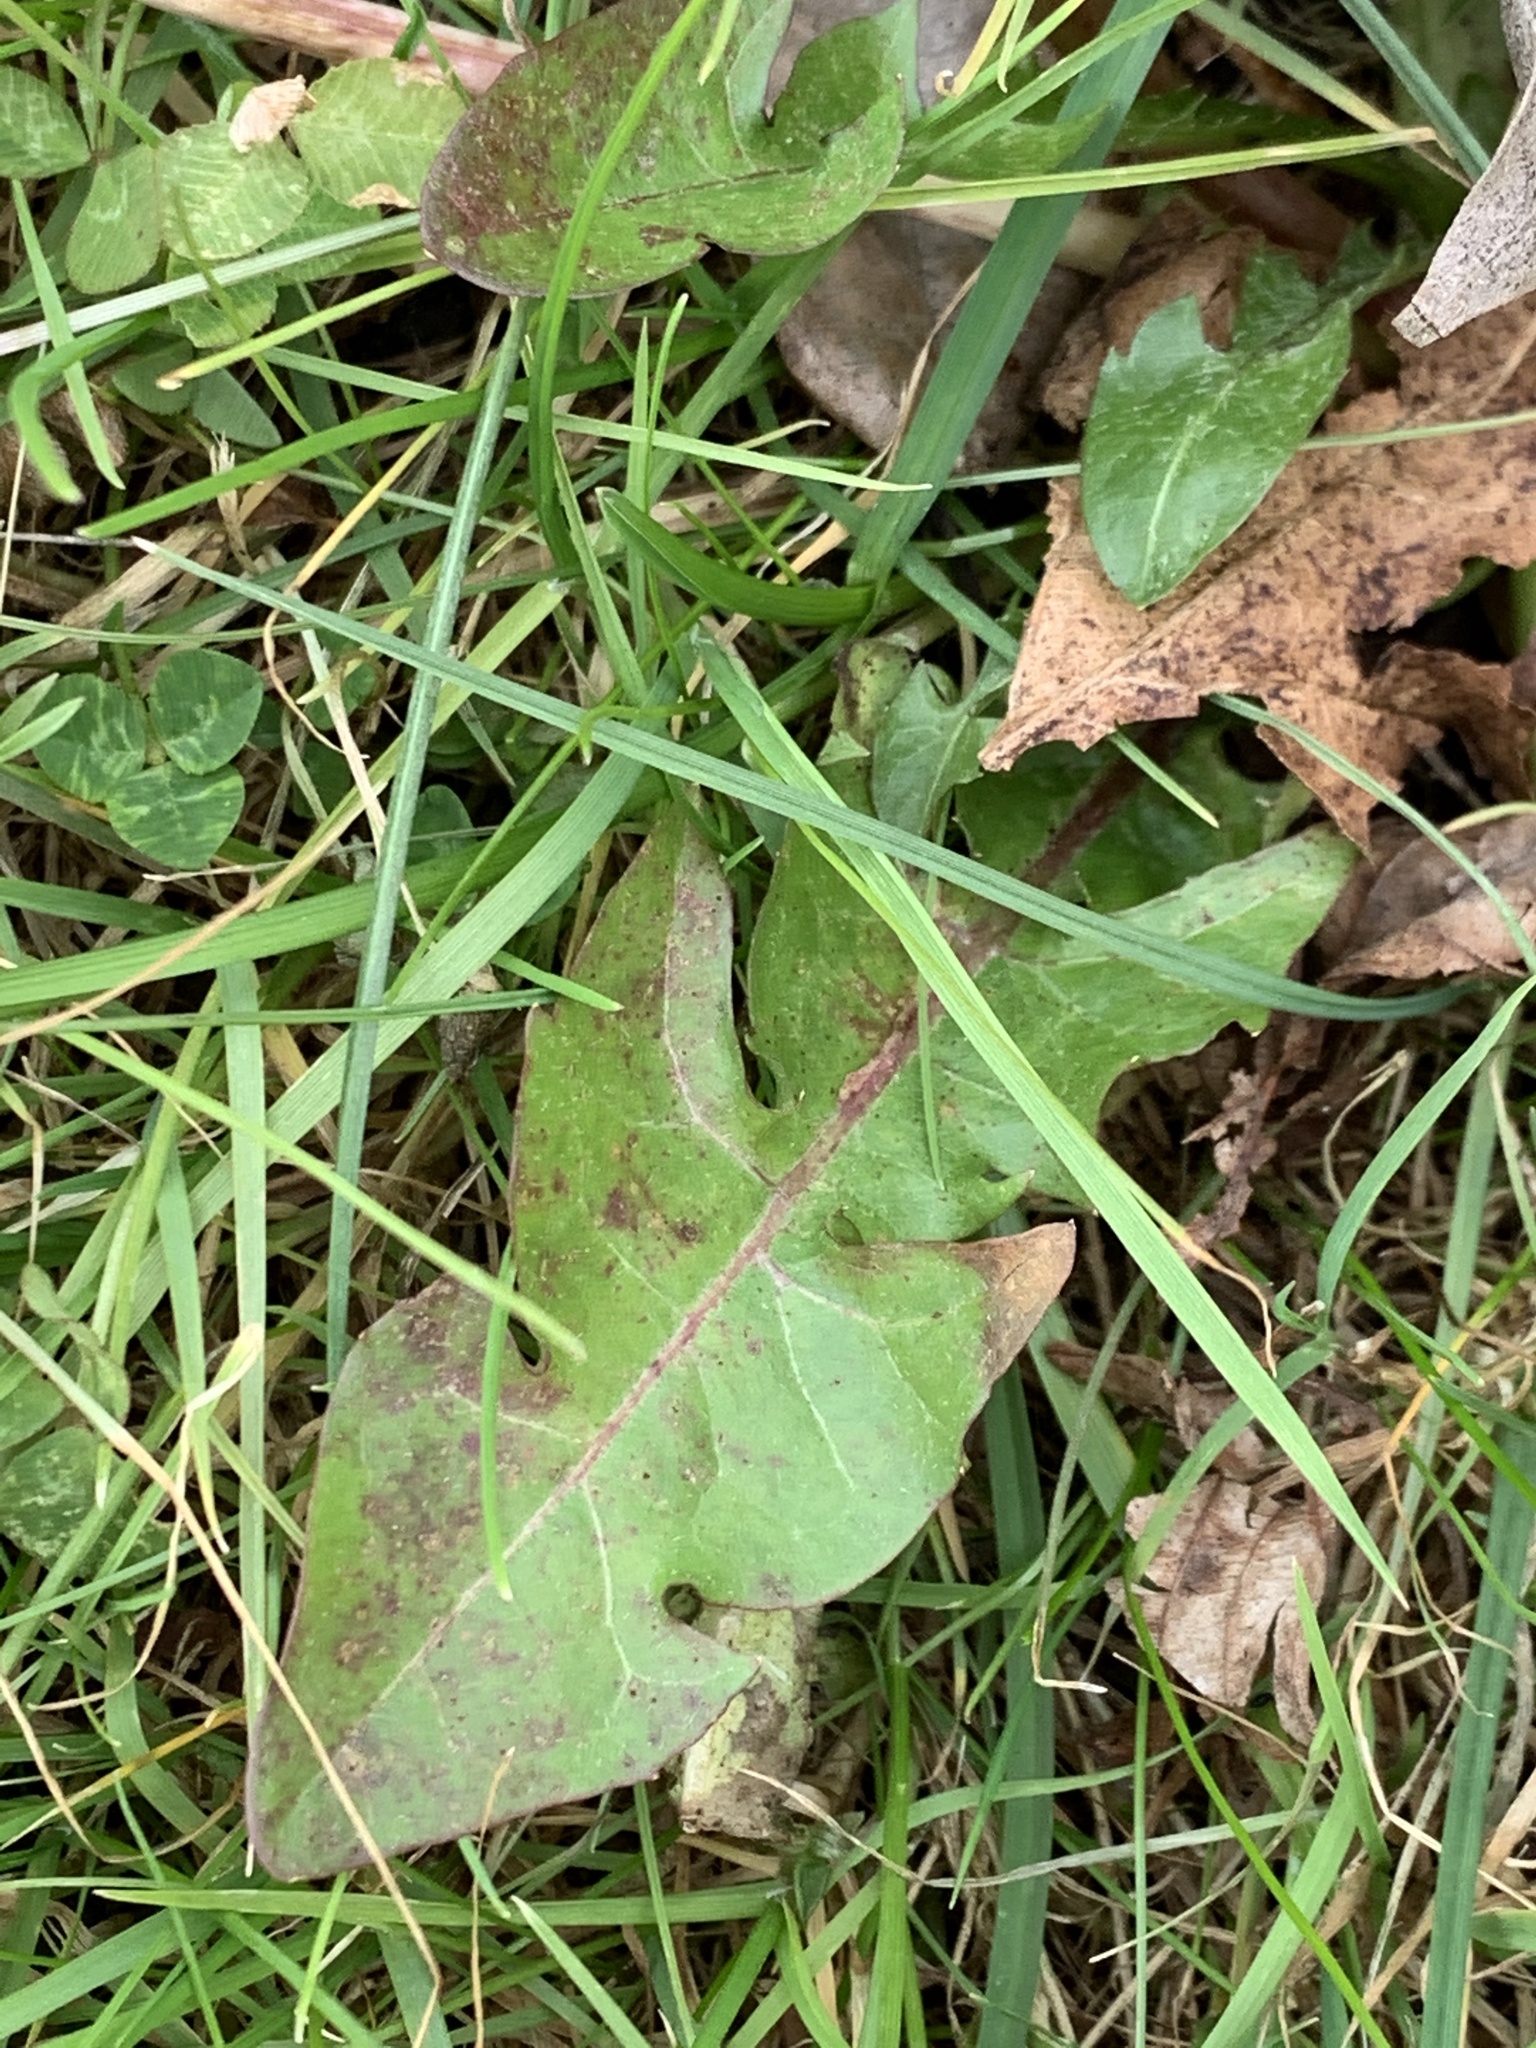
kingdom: Plantae
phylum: Tracheophyta
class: Magnoliopsida
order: Asterales
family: Asteraceae
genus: Taraxacum
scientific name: Taraxacum officinale
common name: Common dandelion
